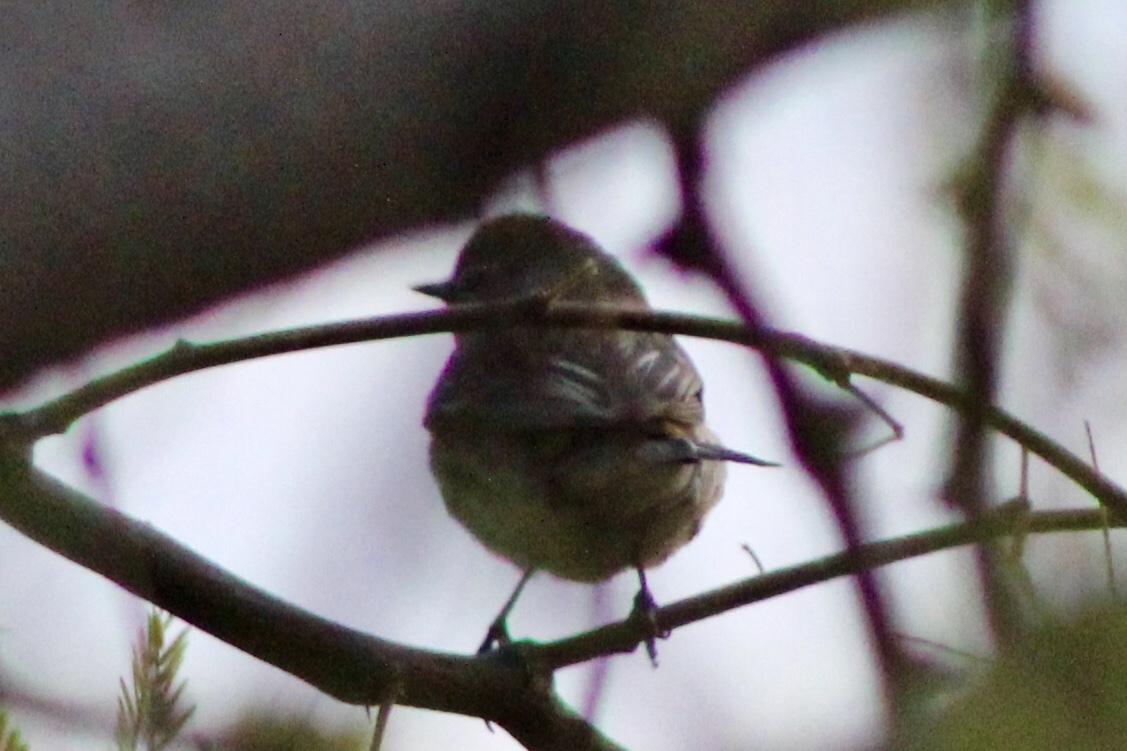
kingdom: Animalia
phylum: Chordata
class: Aves
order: Passeriformes
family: Parulidae
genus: Setophaga
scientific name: Setophaga auduboni
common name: Audubon's warbler
